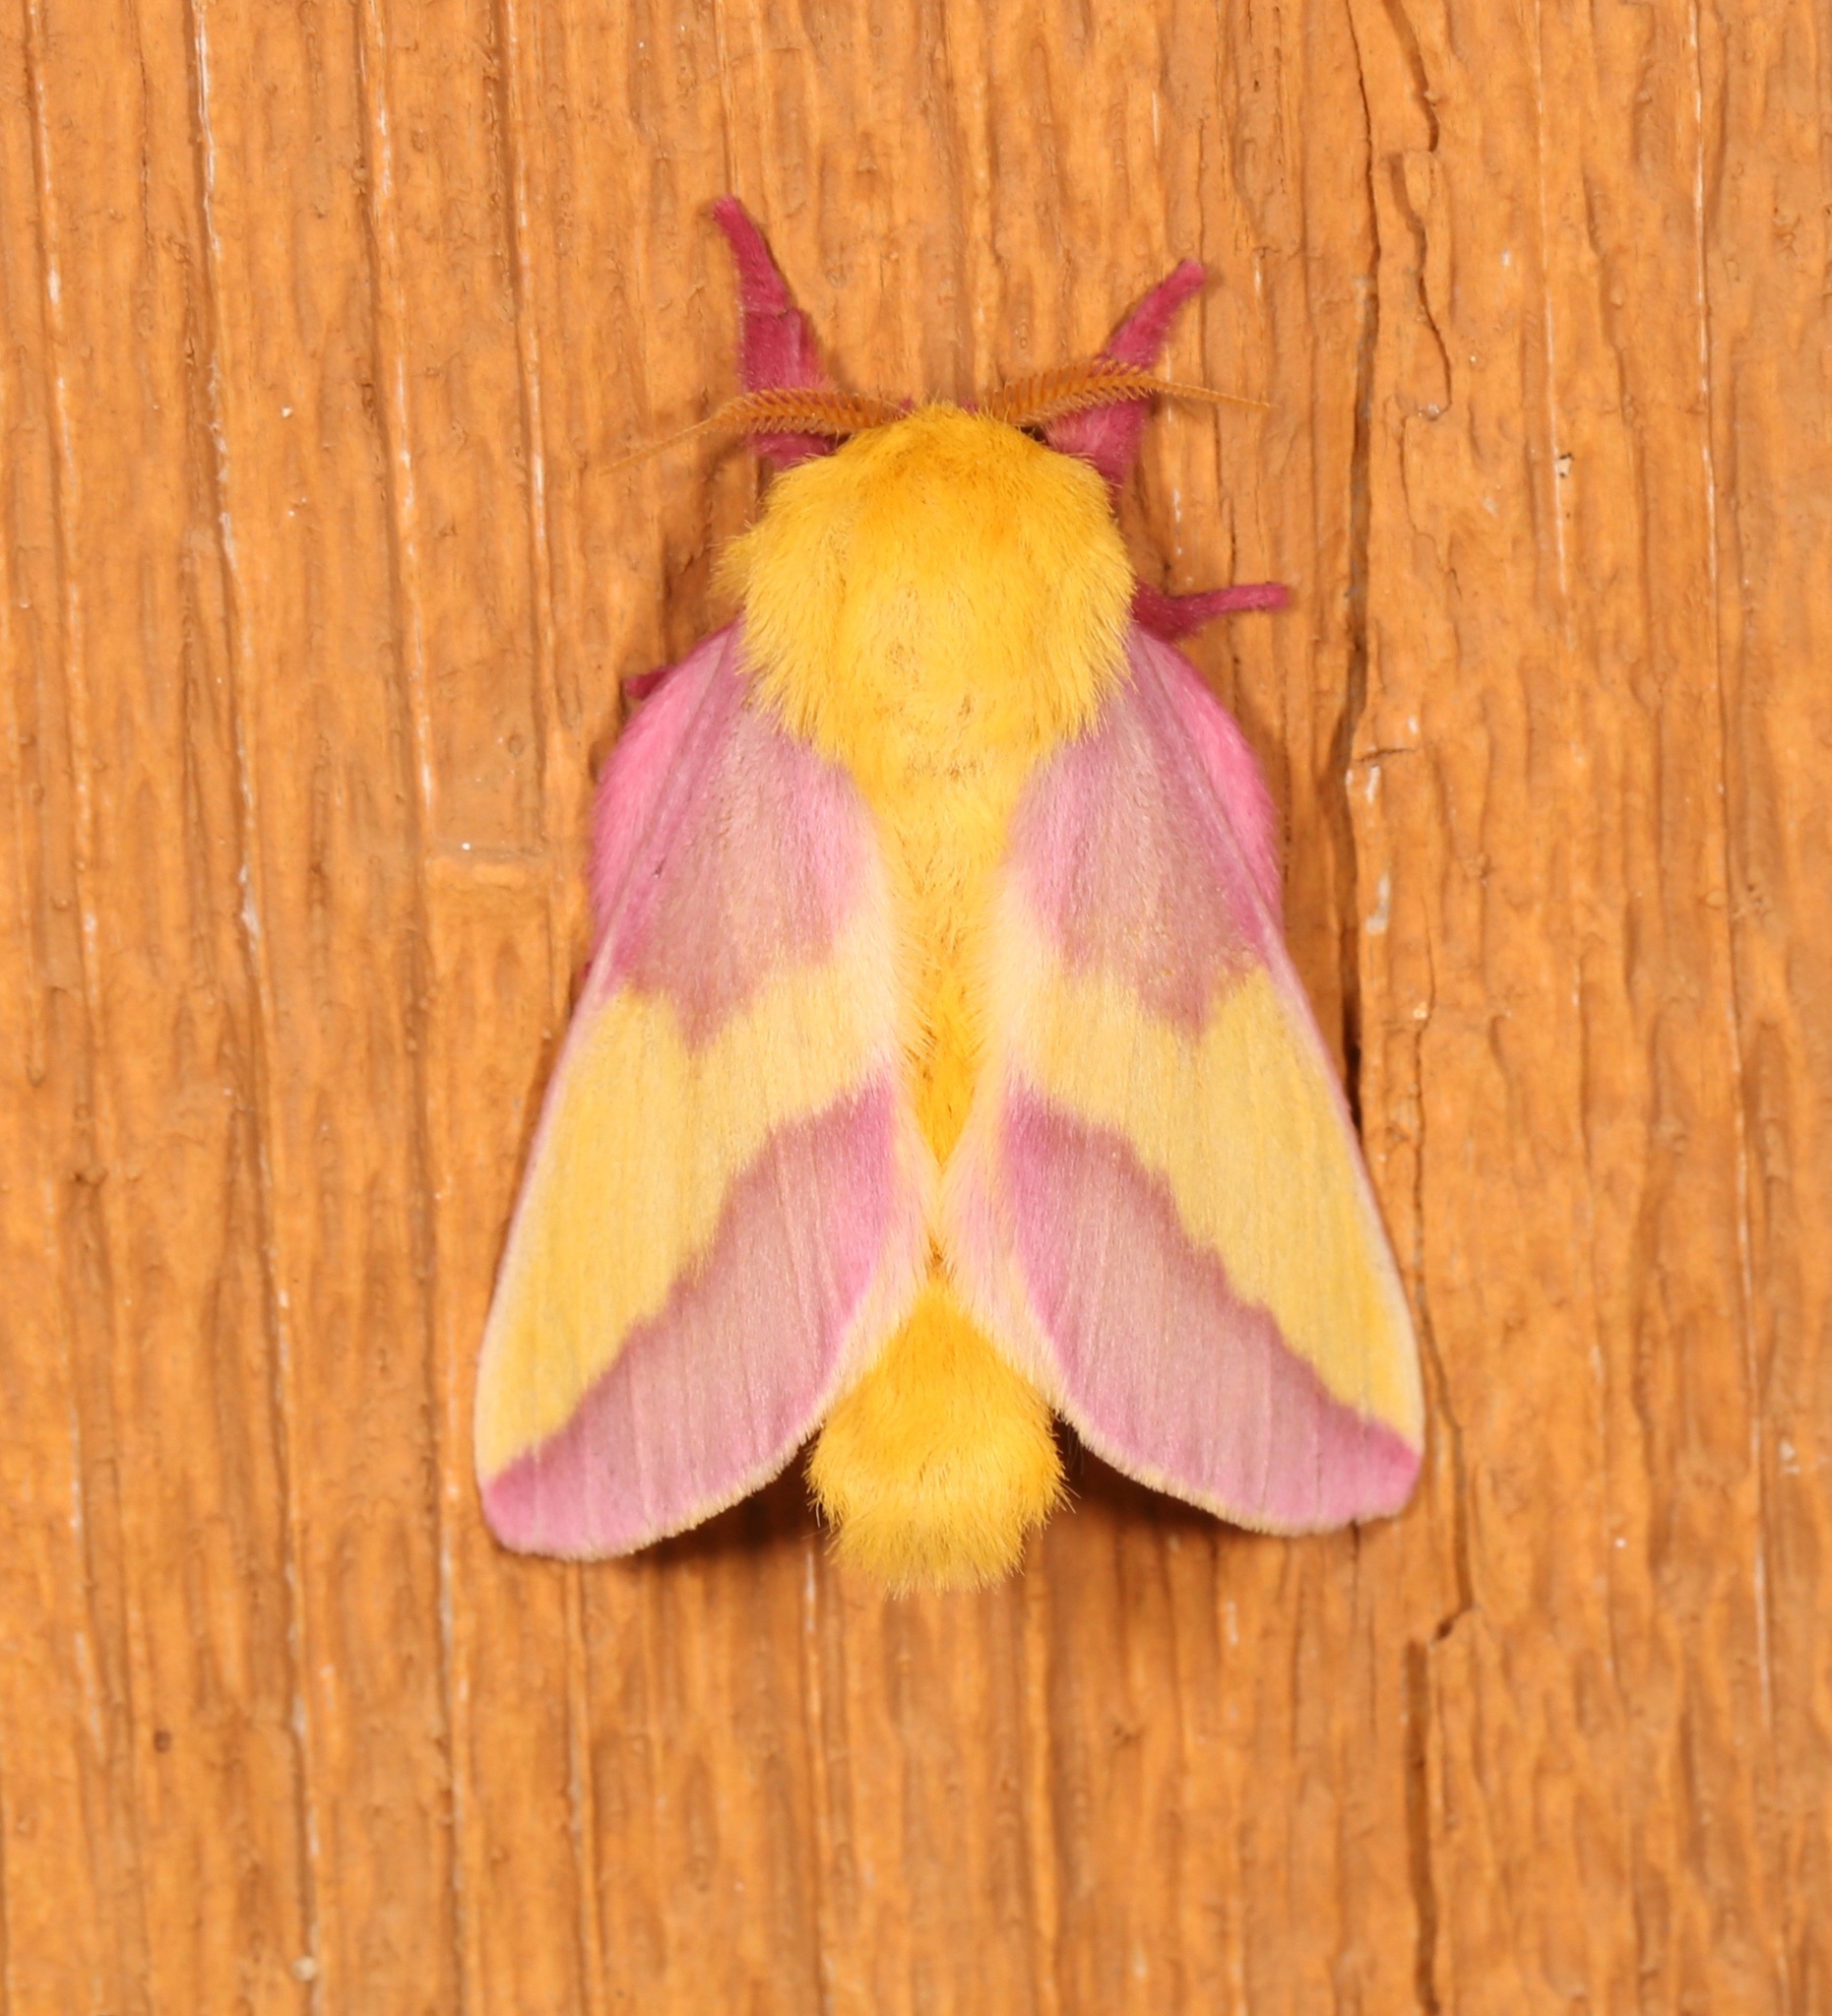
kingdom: Animalia
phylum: Arthropoda
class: Insecta
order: Lepidoptera
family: Saturniidae
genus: Dryocampa
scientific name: Dryocampa rubicunda
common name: Rosy maple moth
